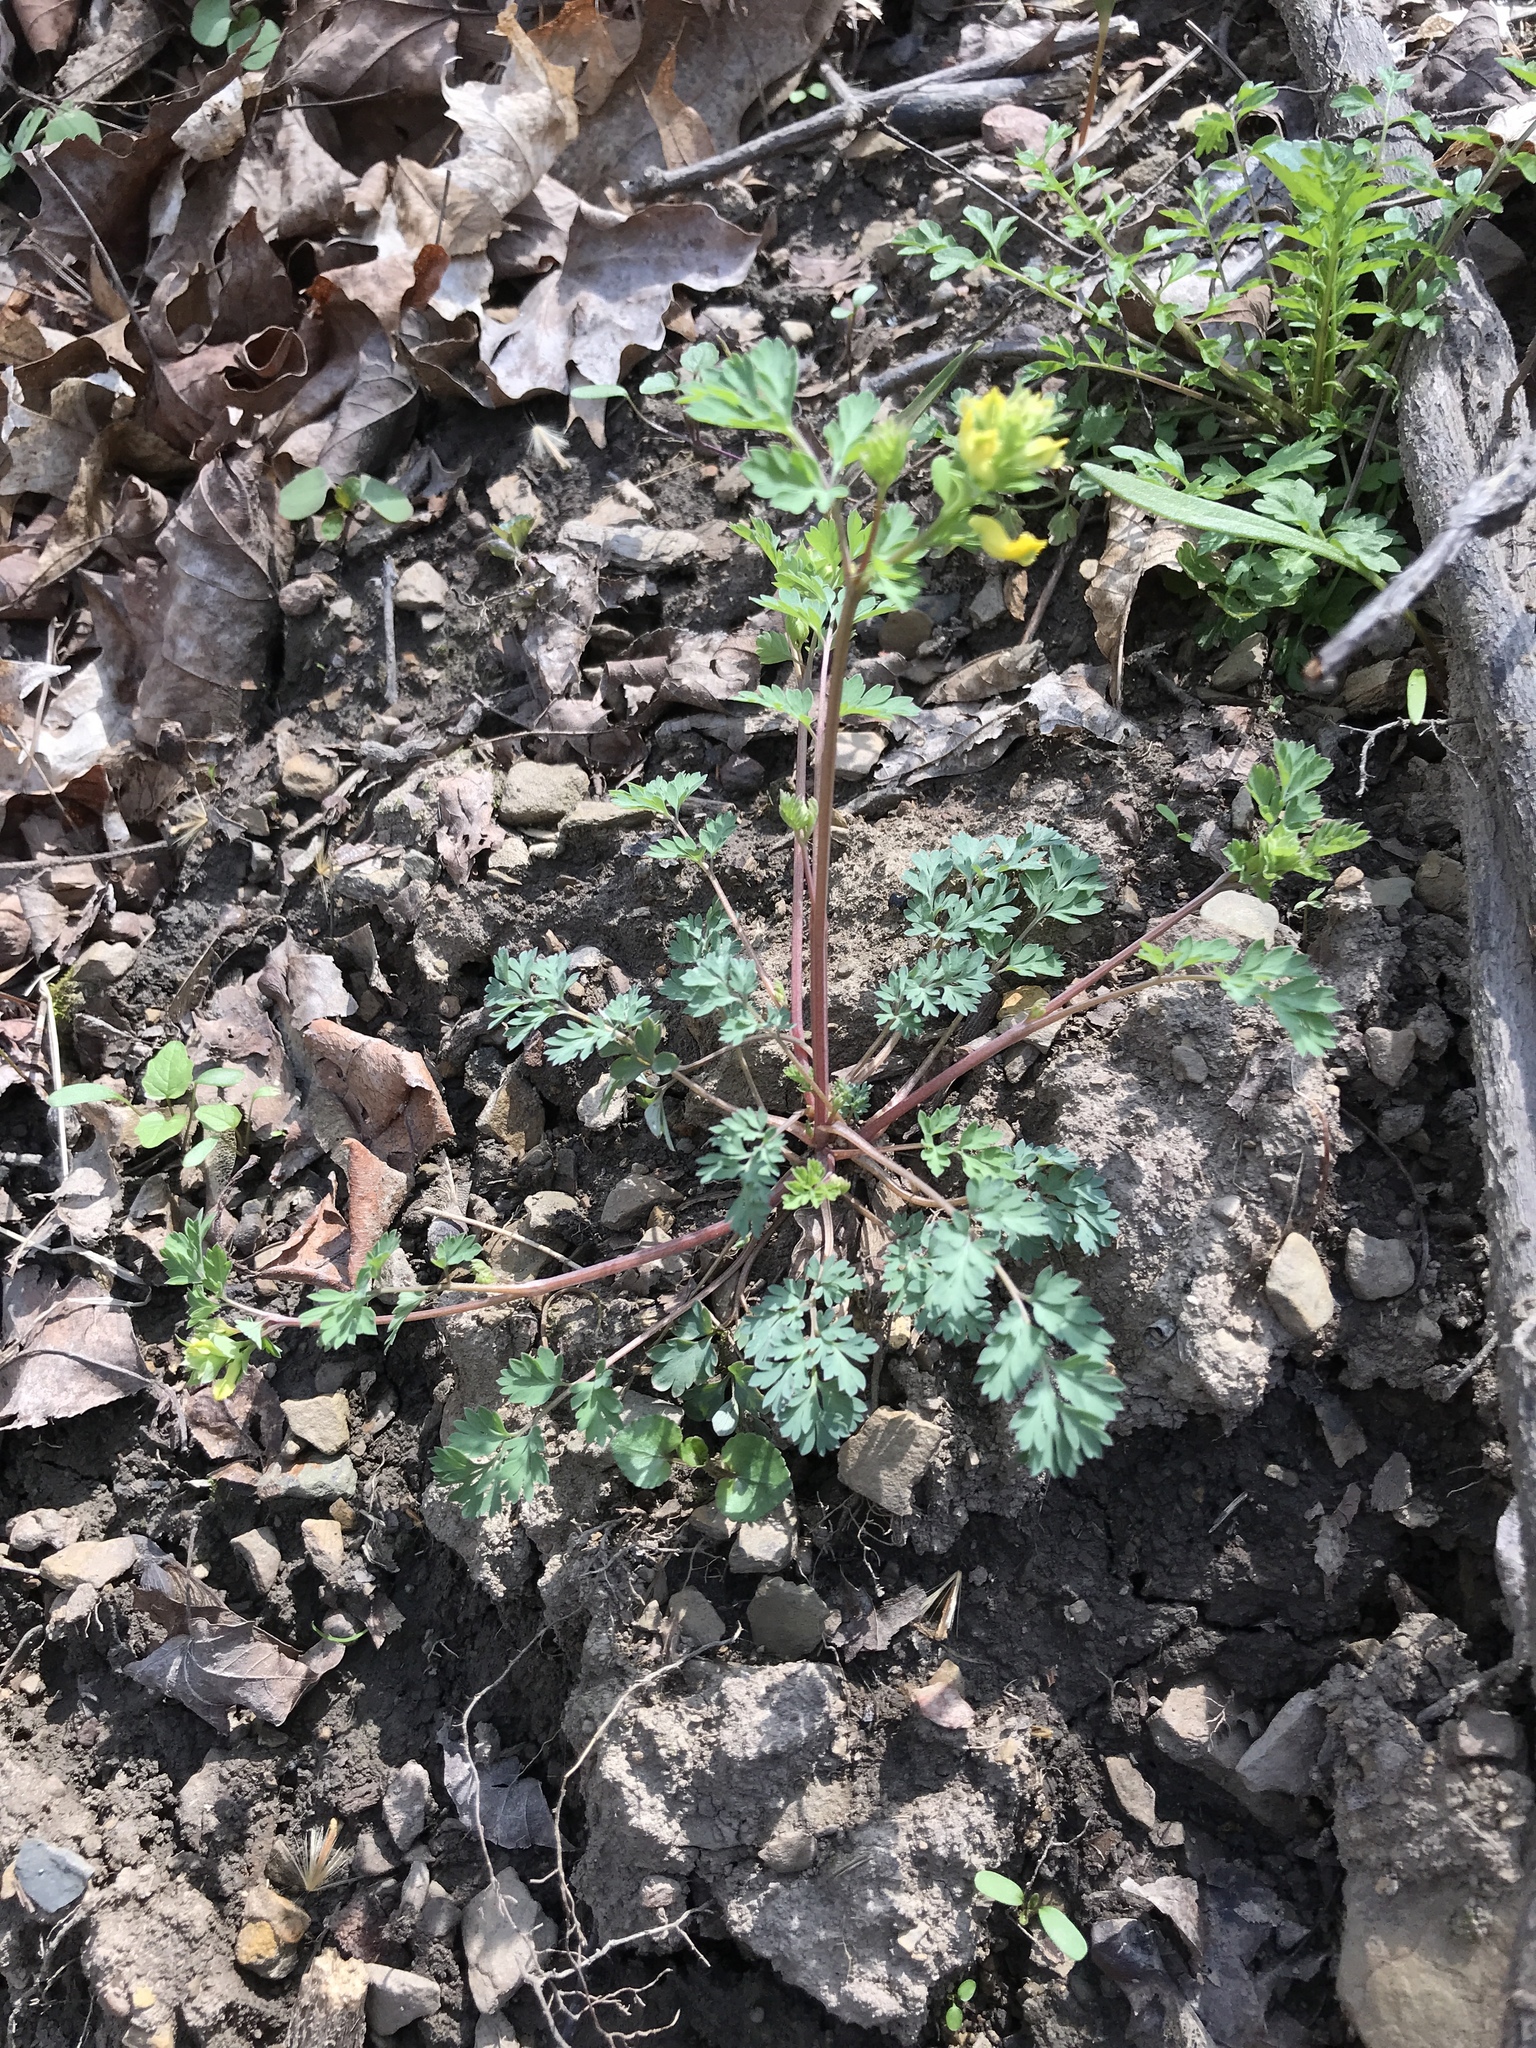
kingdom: Plantae
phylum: Tracheophyta
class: Magnoliopsida
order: Ranunculales
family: Papaveraceae
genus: Corydalis
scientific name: Corydalis flavula
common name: Yellow corydalis
